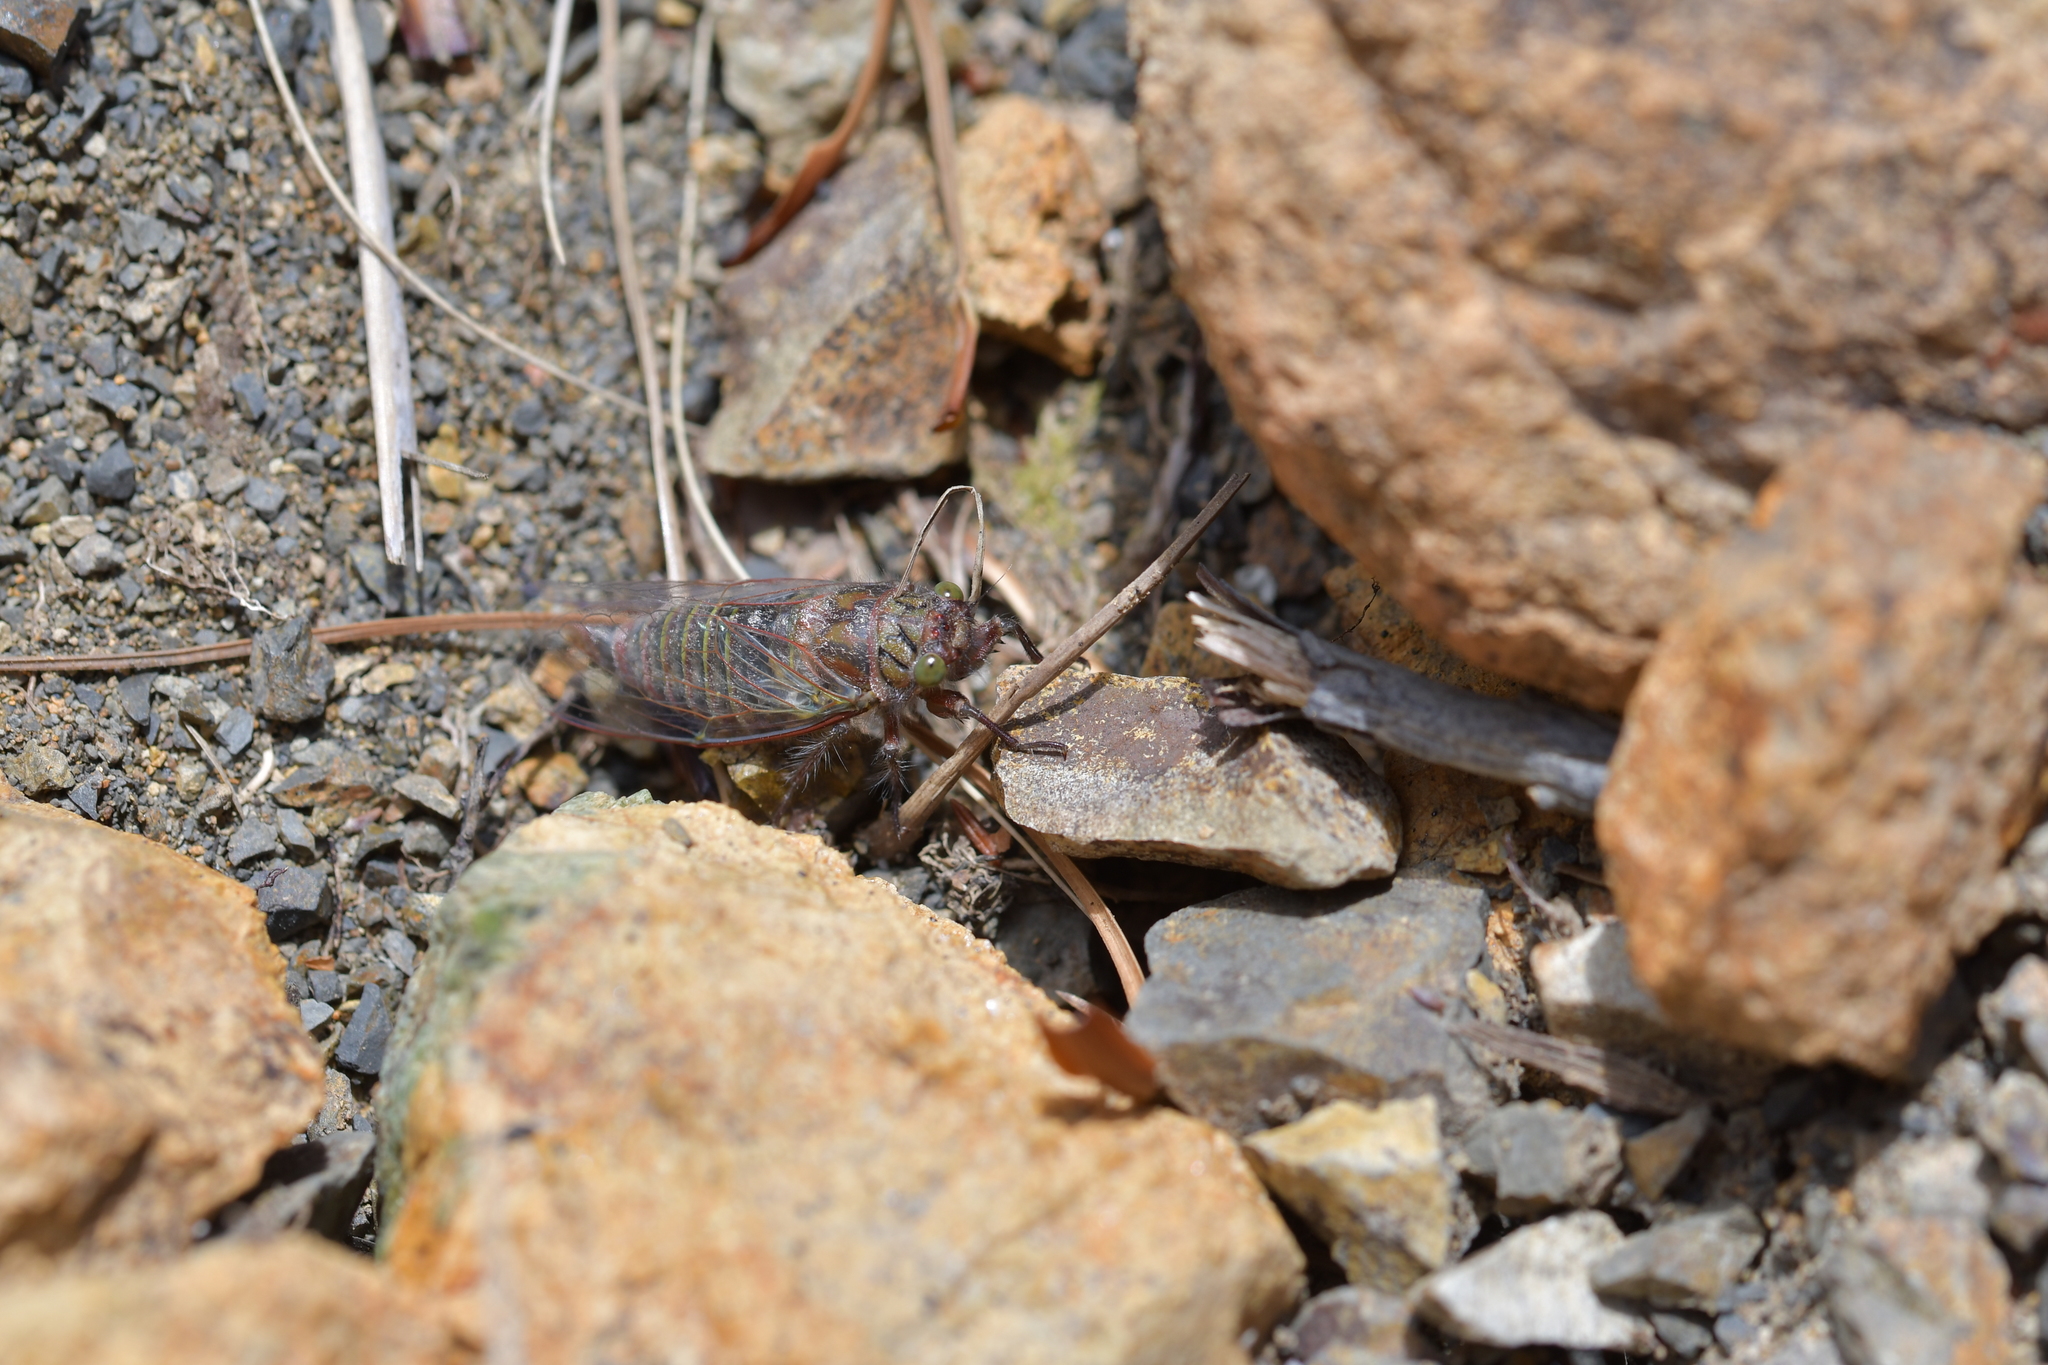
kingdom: Animalia
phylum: Arthropoda
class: Insecta
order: Hemiptera
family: Cicadidae
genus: Maoricicada
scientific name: Maoricicada cassiope
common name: Screaming cicada
